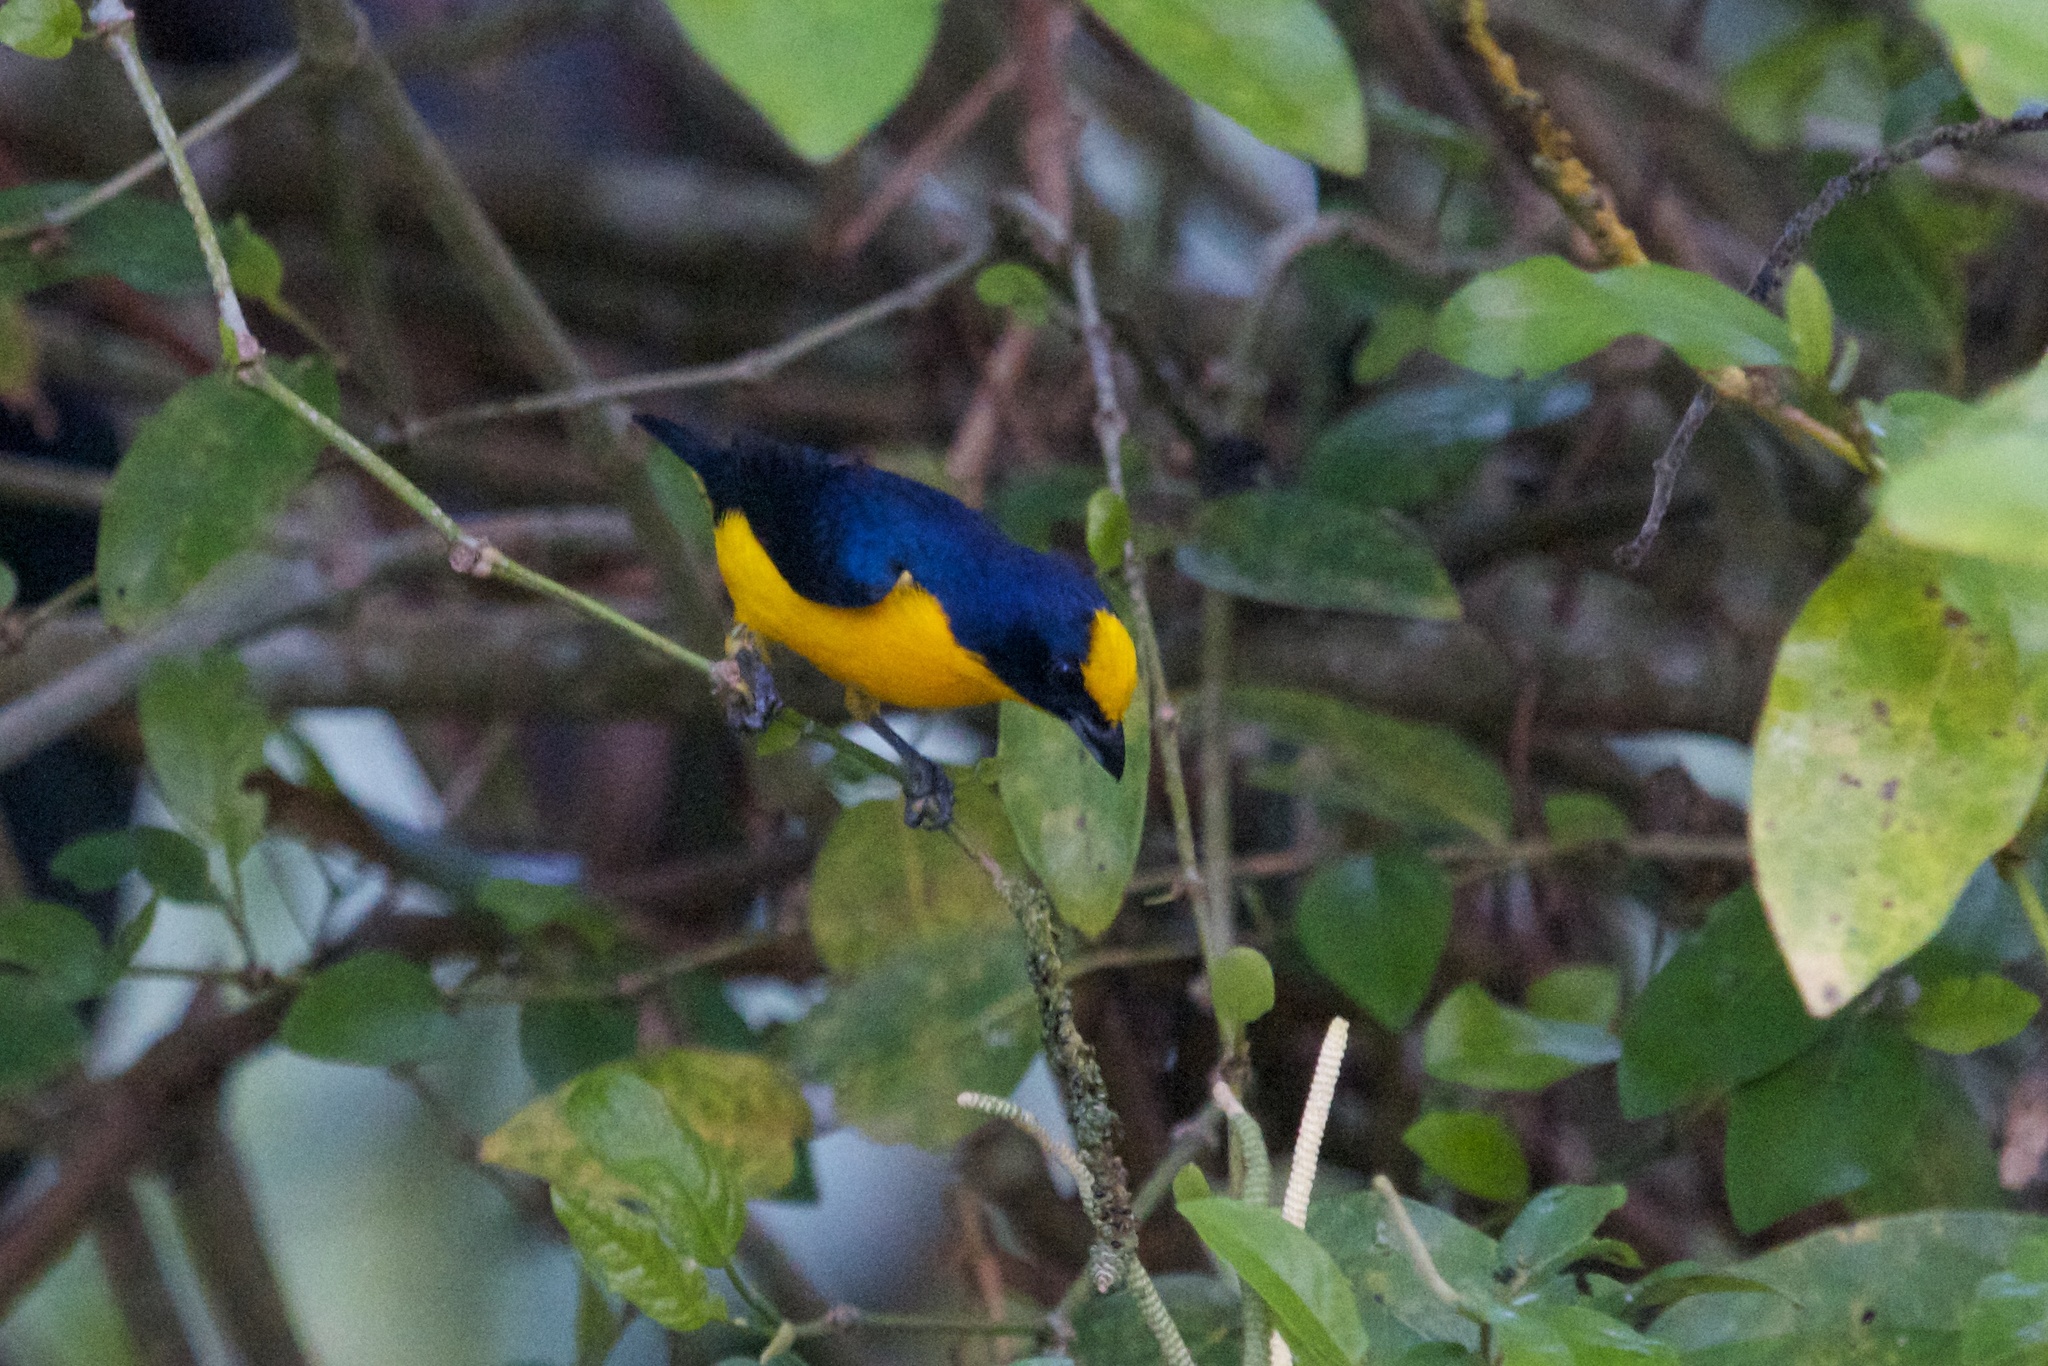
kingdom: Animalia
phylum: Chordata
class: Aves
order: Passeriformes
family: Fringillidae
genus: Euphonia
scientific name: Euphonia laniirostris
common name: Thick-billed euphonia
